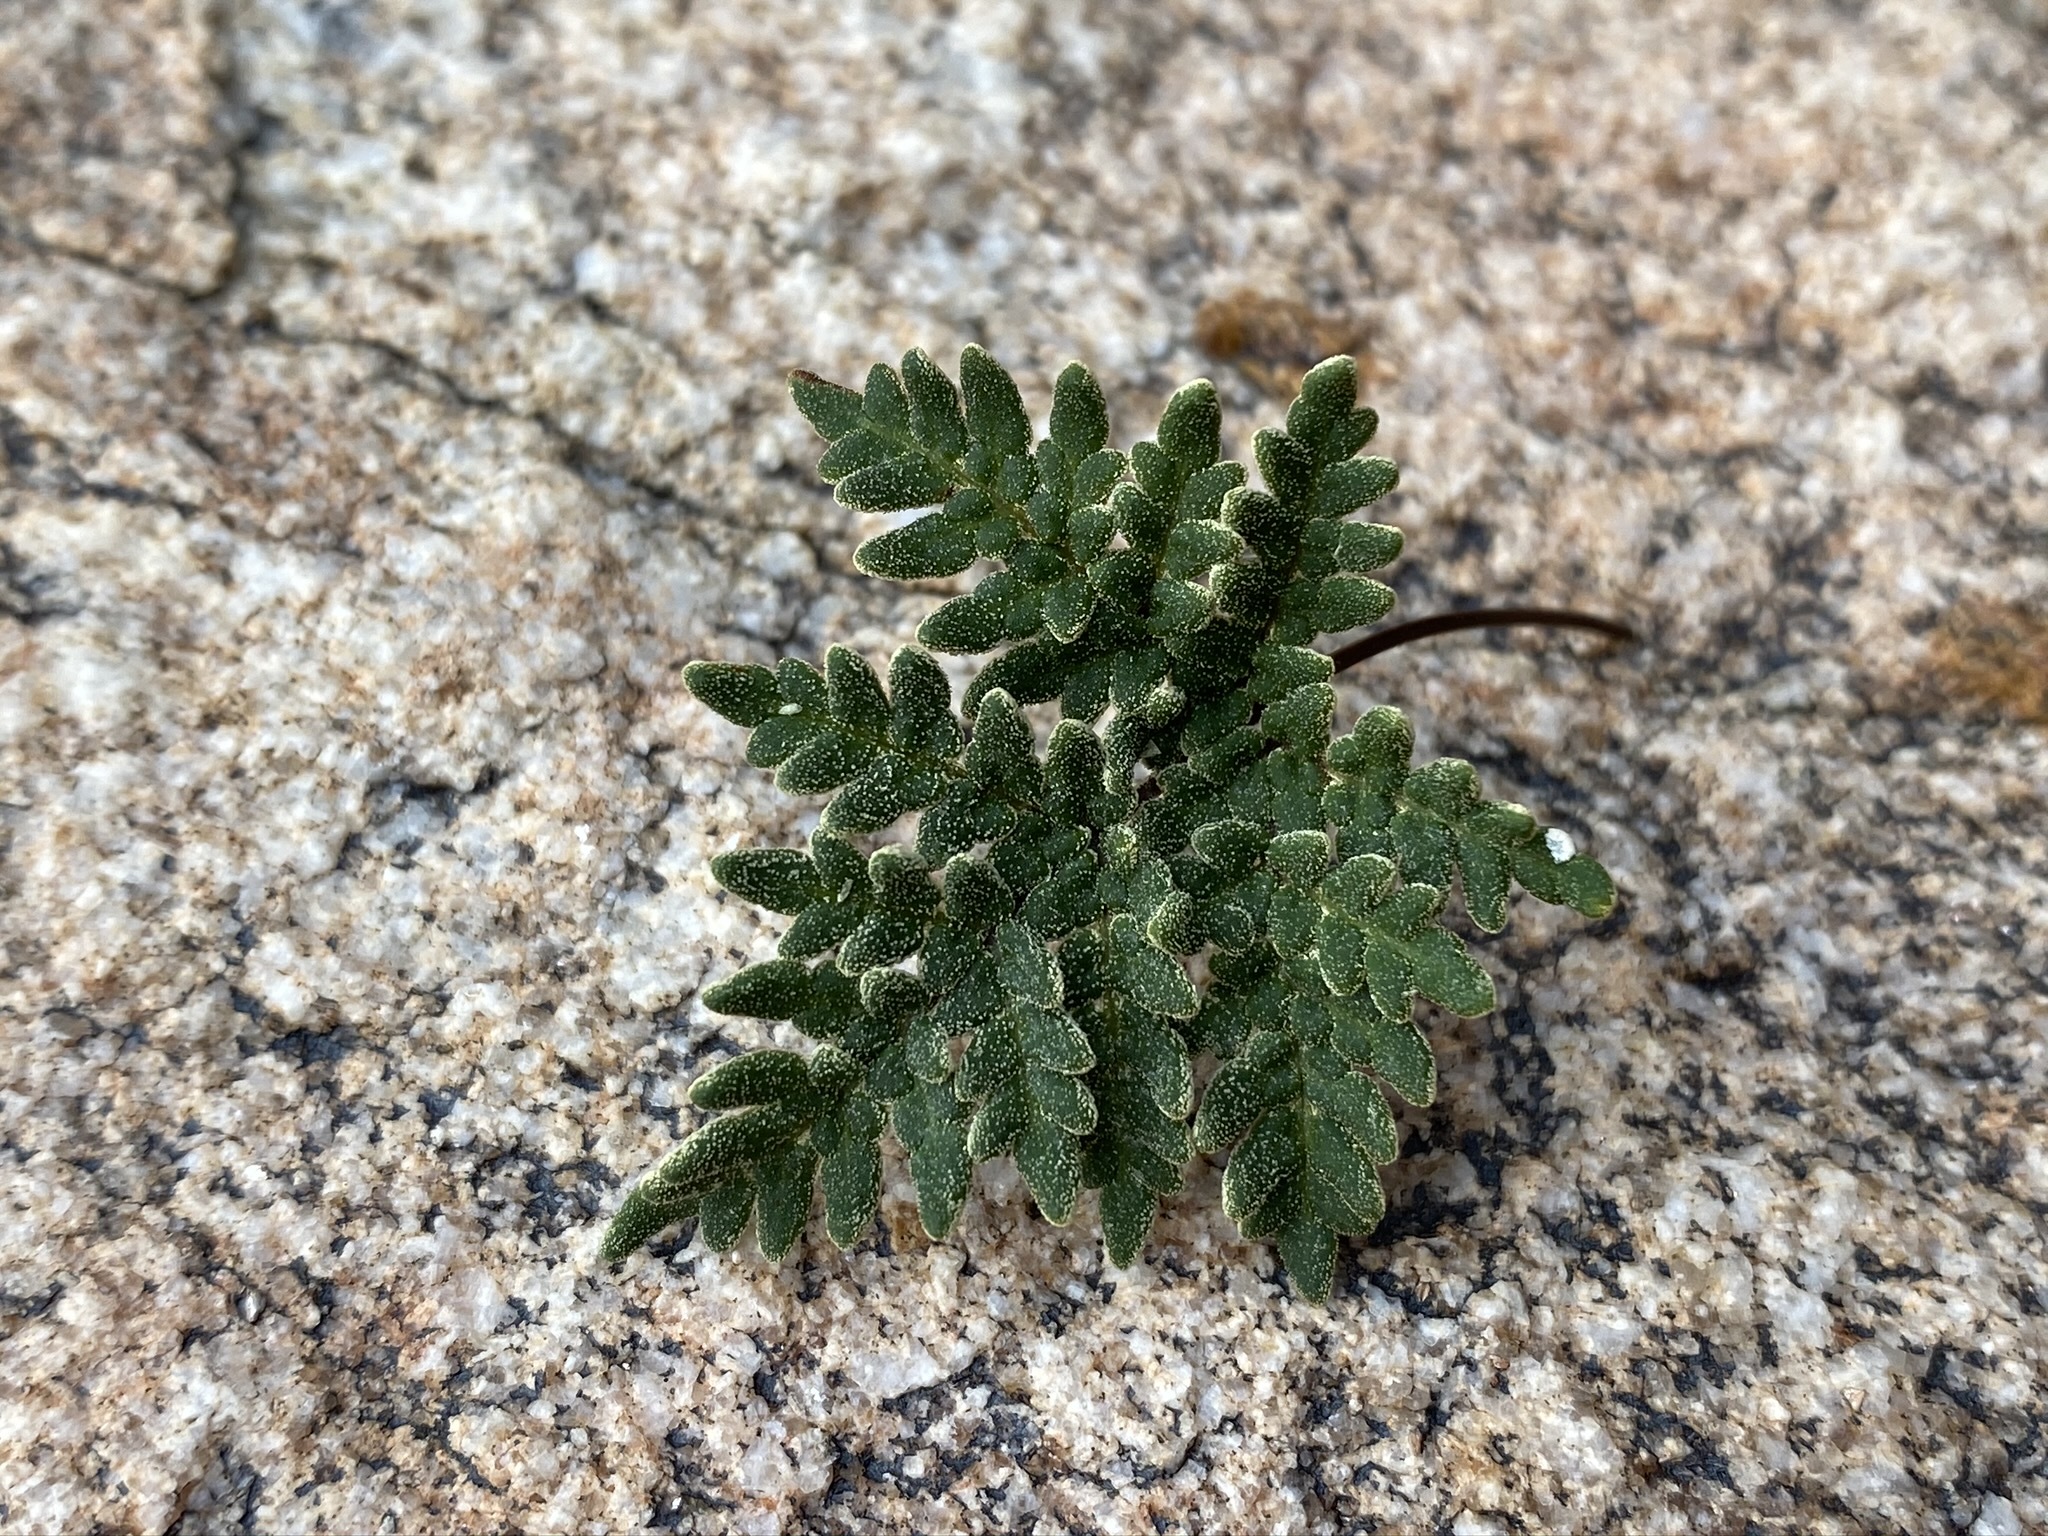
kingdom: Plantae
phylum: Tracheophyta
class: Polypodiopsida
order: Polypodiales
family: Pteridaceae
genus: Notholaena
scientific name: Notholaena californica
